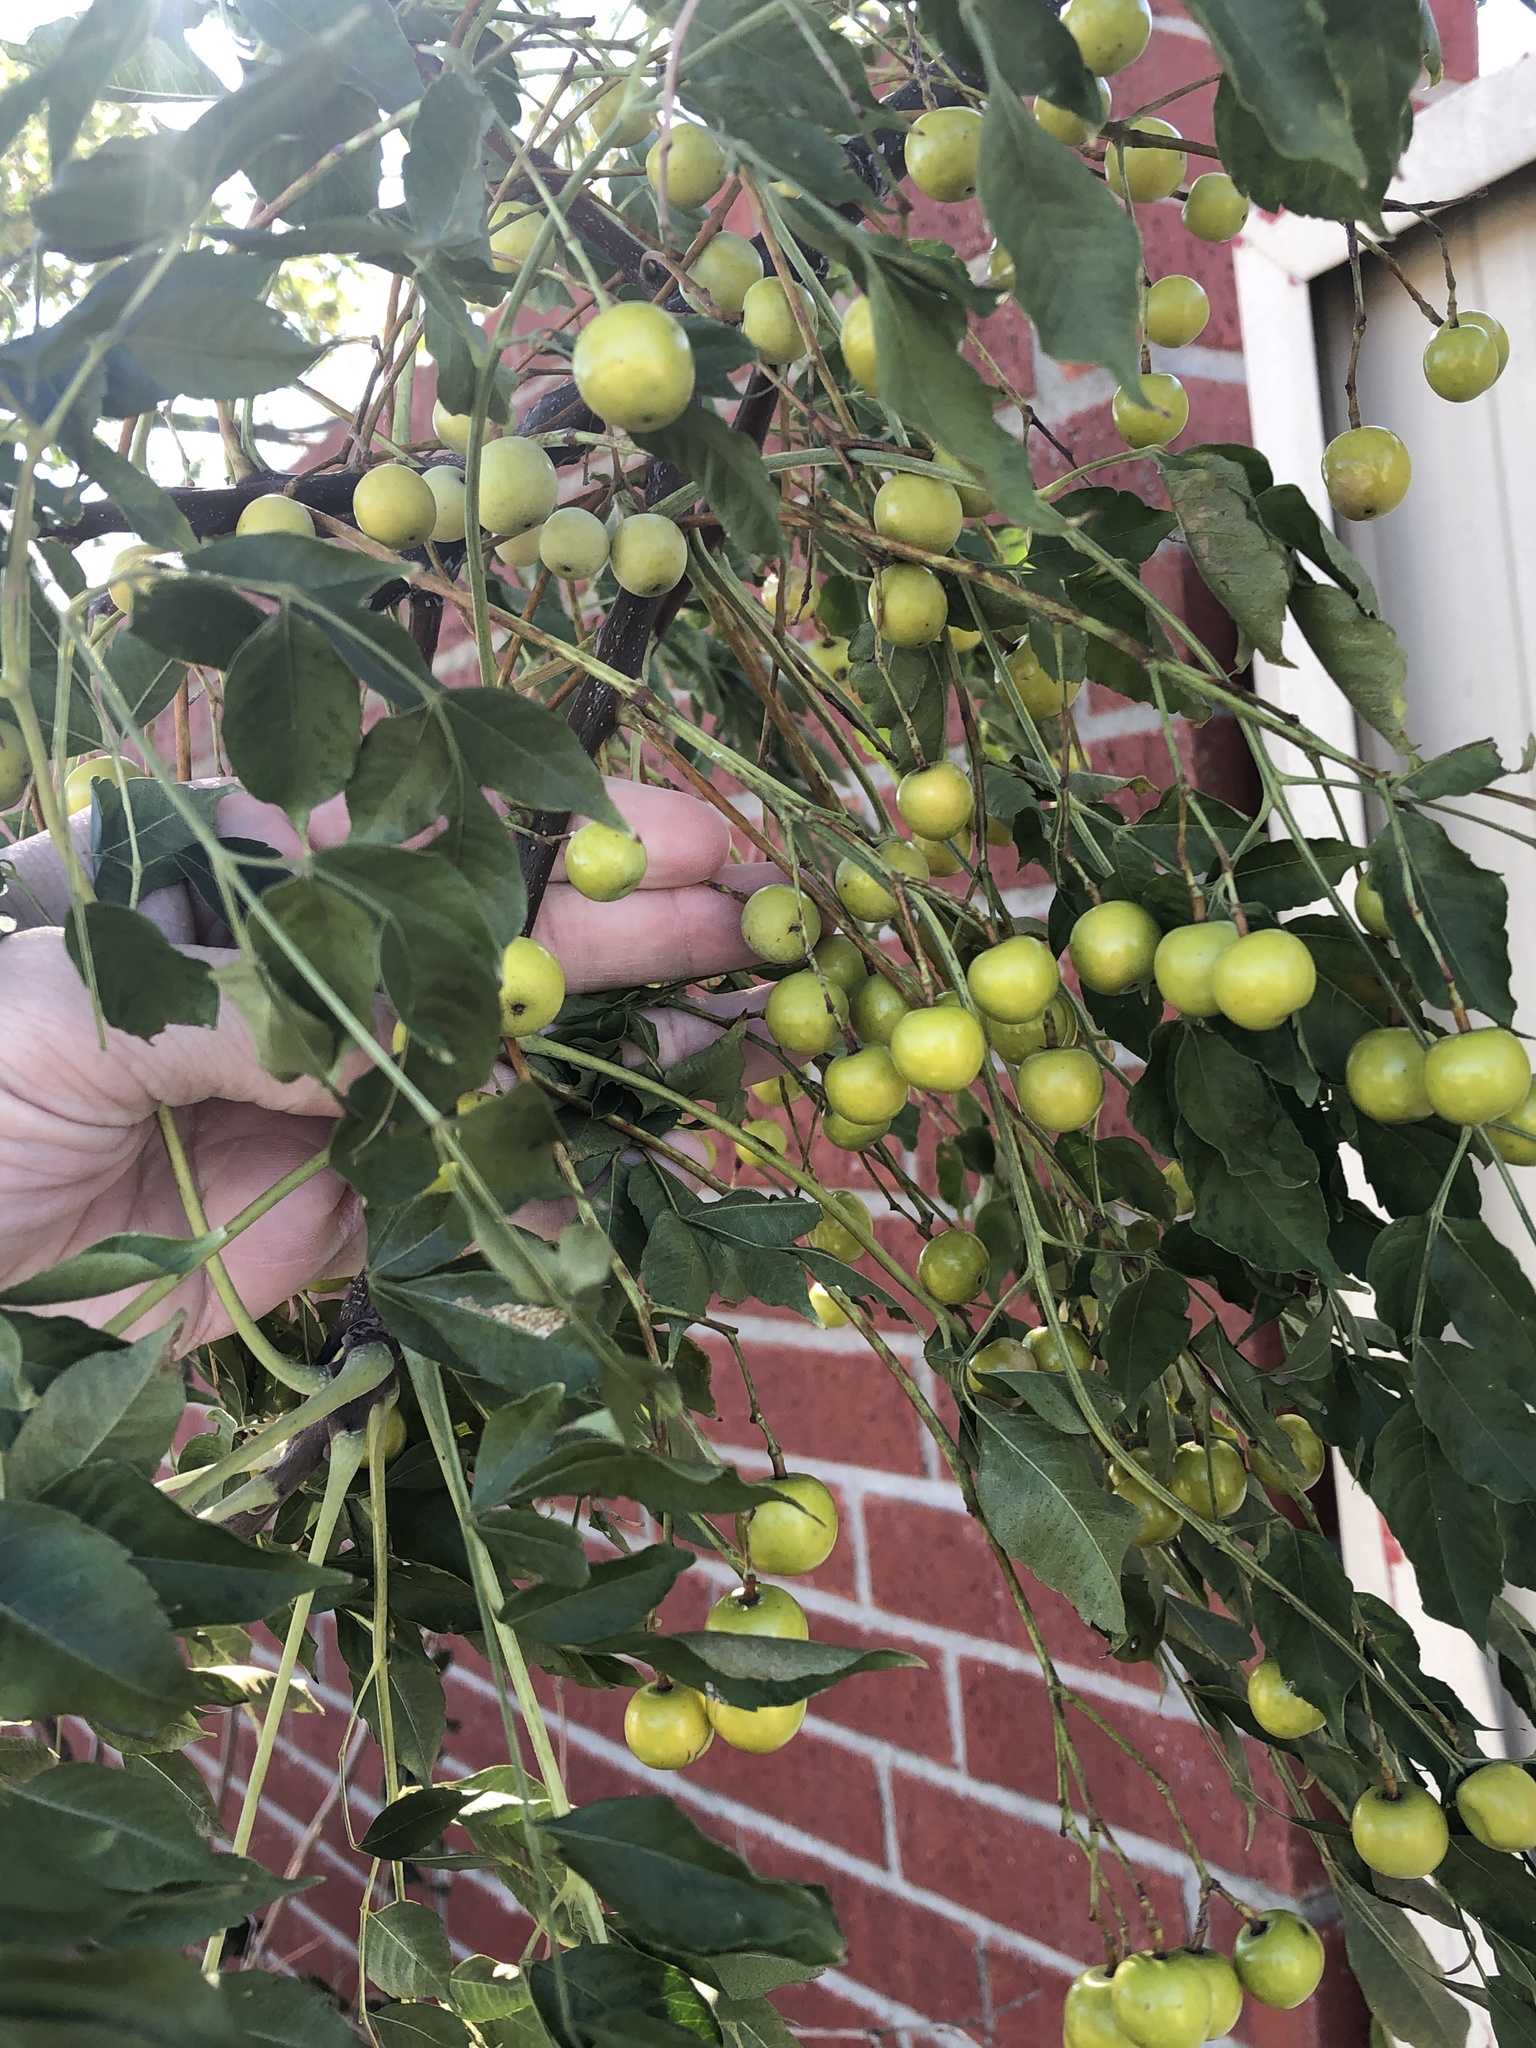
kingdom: Plantae
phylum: Tracheophyta
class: Magnoliopsida
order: Sapindales
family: Meliaceae
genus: Melia
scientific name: Melia azedarach
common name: Chinaberrytree
